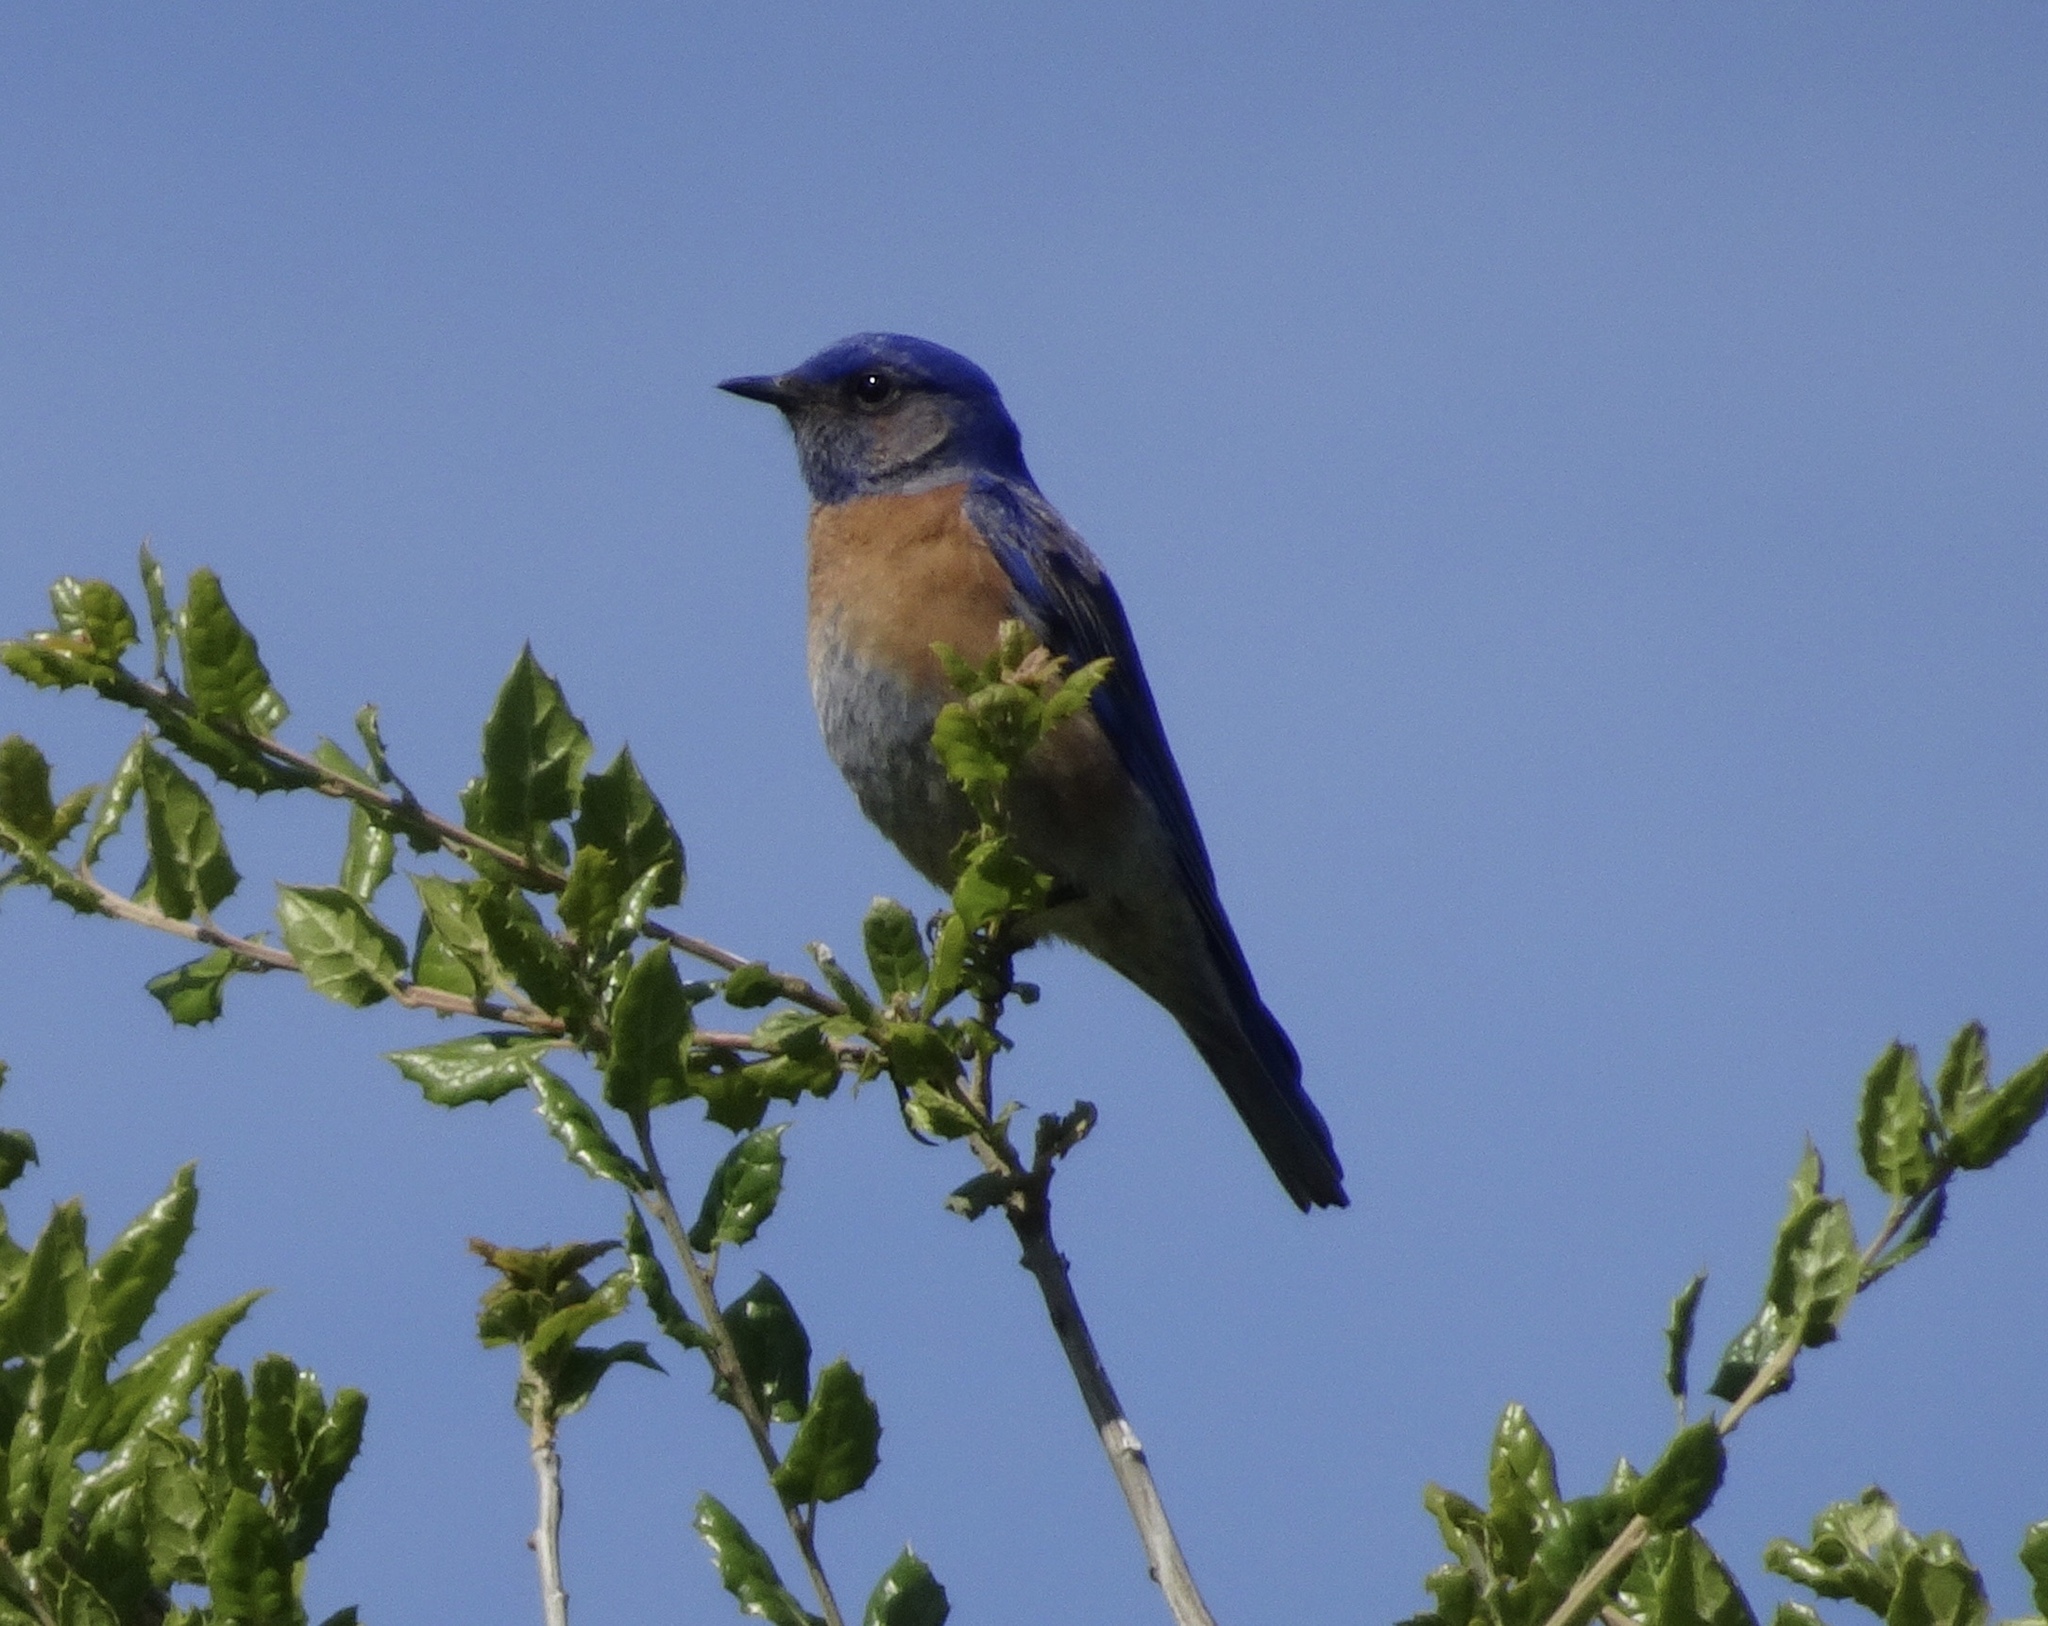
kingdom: Animalia
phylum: Chordata
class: Aves
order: Passeriformes
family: Turdidae
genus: Sialia
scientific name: Sialia mexicana
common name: Western bluebird
